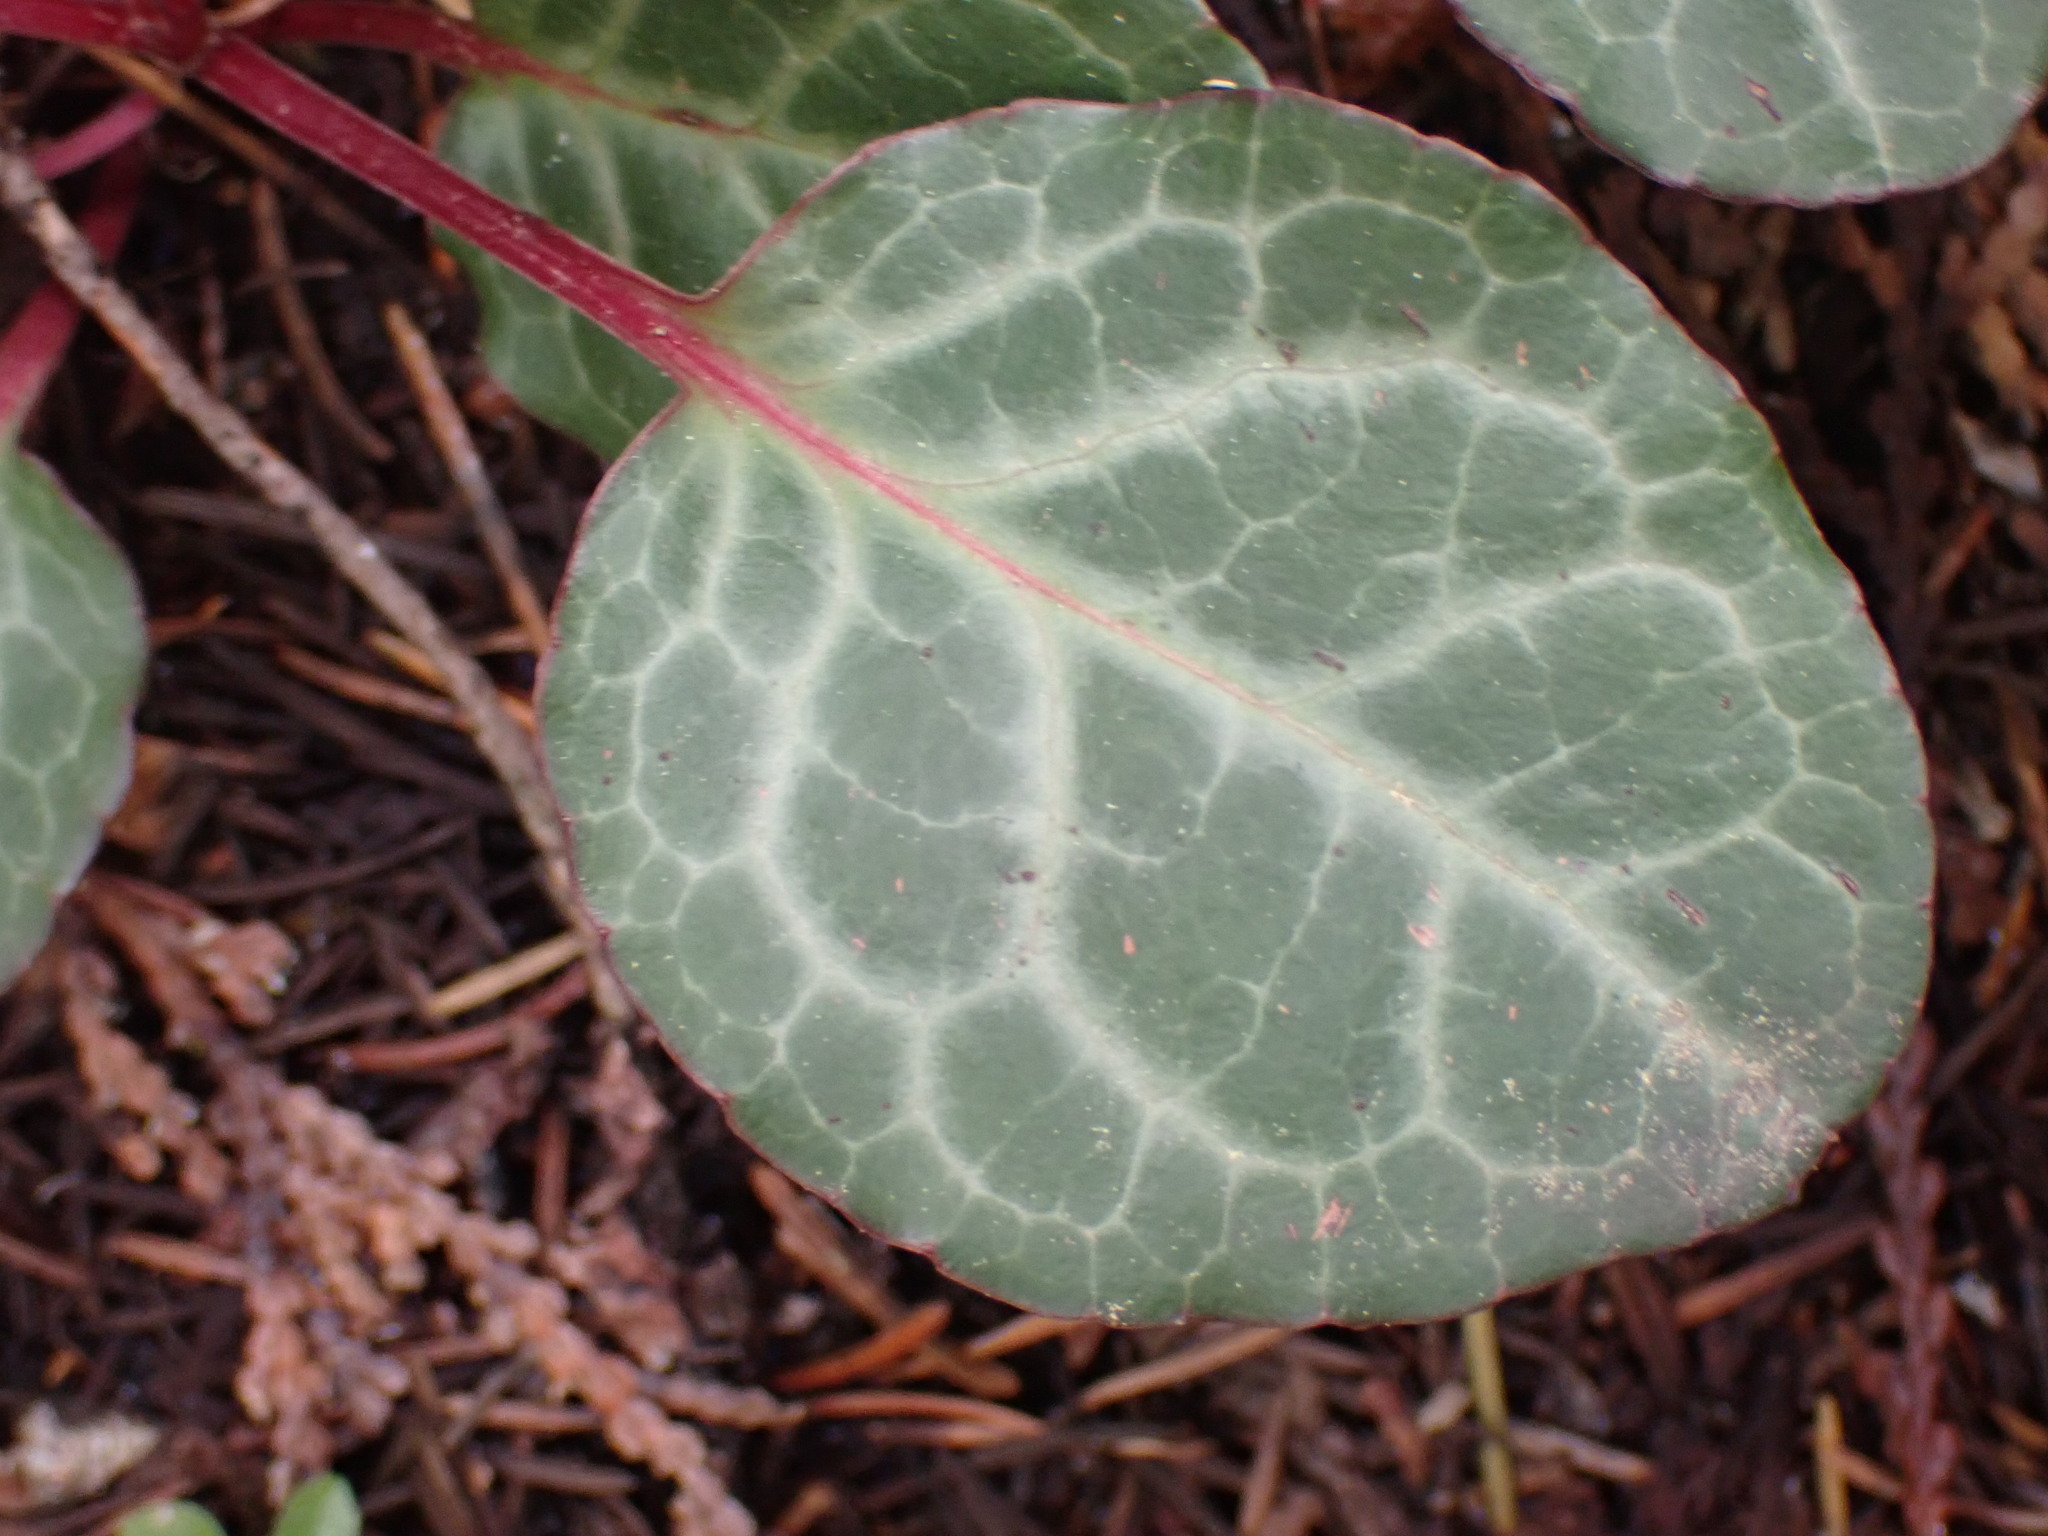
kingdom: Plantae
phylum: Tracheophyta
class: Magnoliopsida
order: Ericales
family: Ericaceae
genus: Pyrola
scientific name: Pyrola picta
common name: White-vein wintergreen
